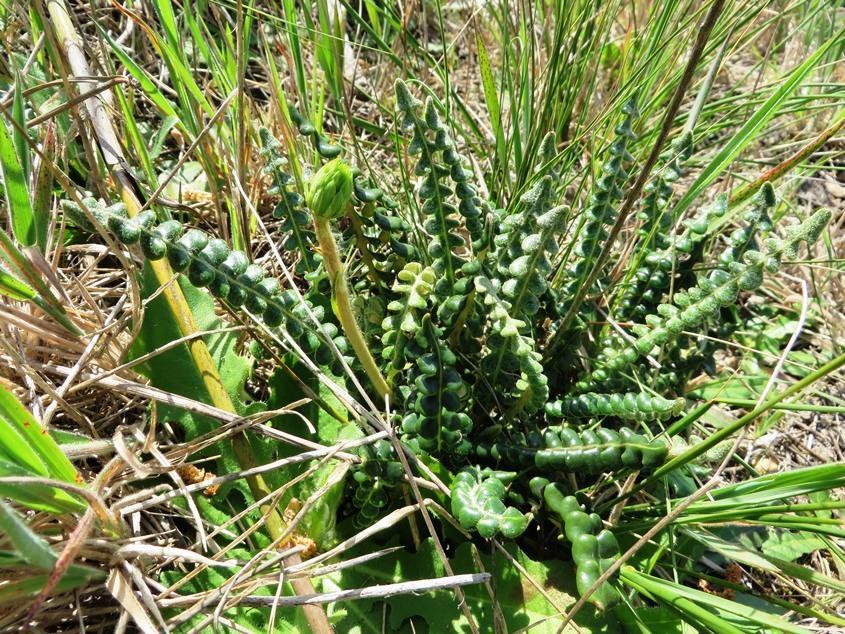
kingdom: Plantae
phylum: Tracheophyta
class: Magnoliopsida
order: Asterales
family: Asteraceae
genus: Gerbera
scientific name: Gerbera linnaei
